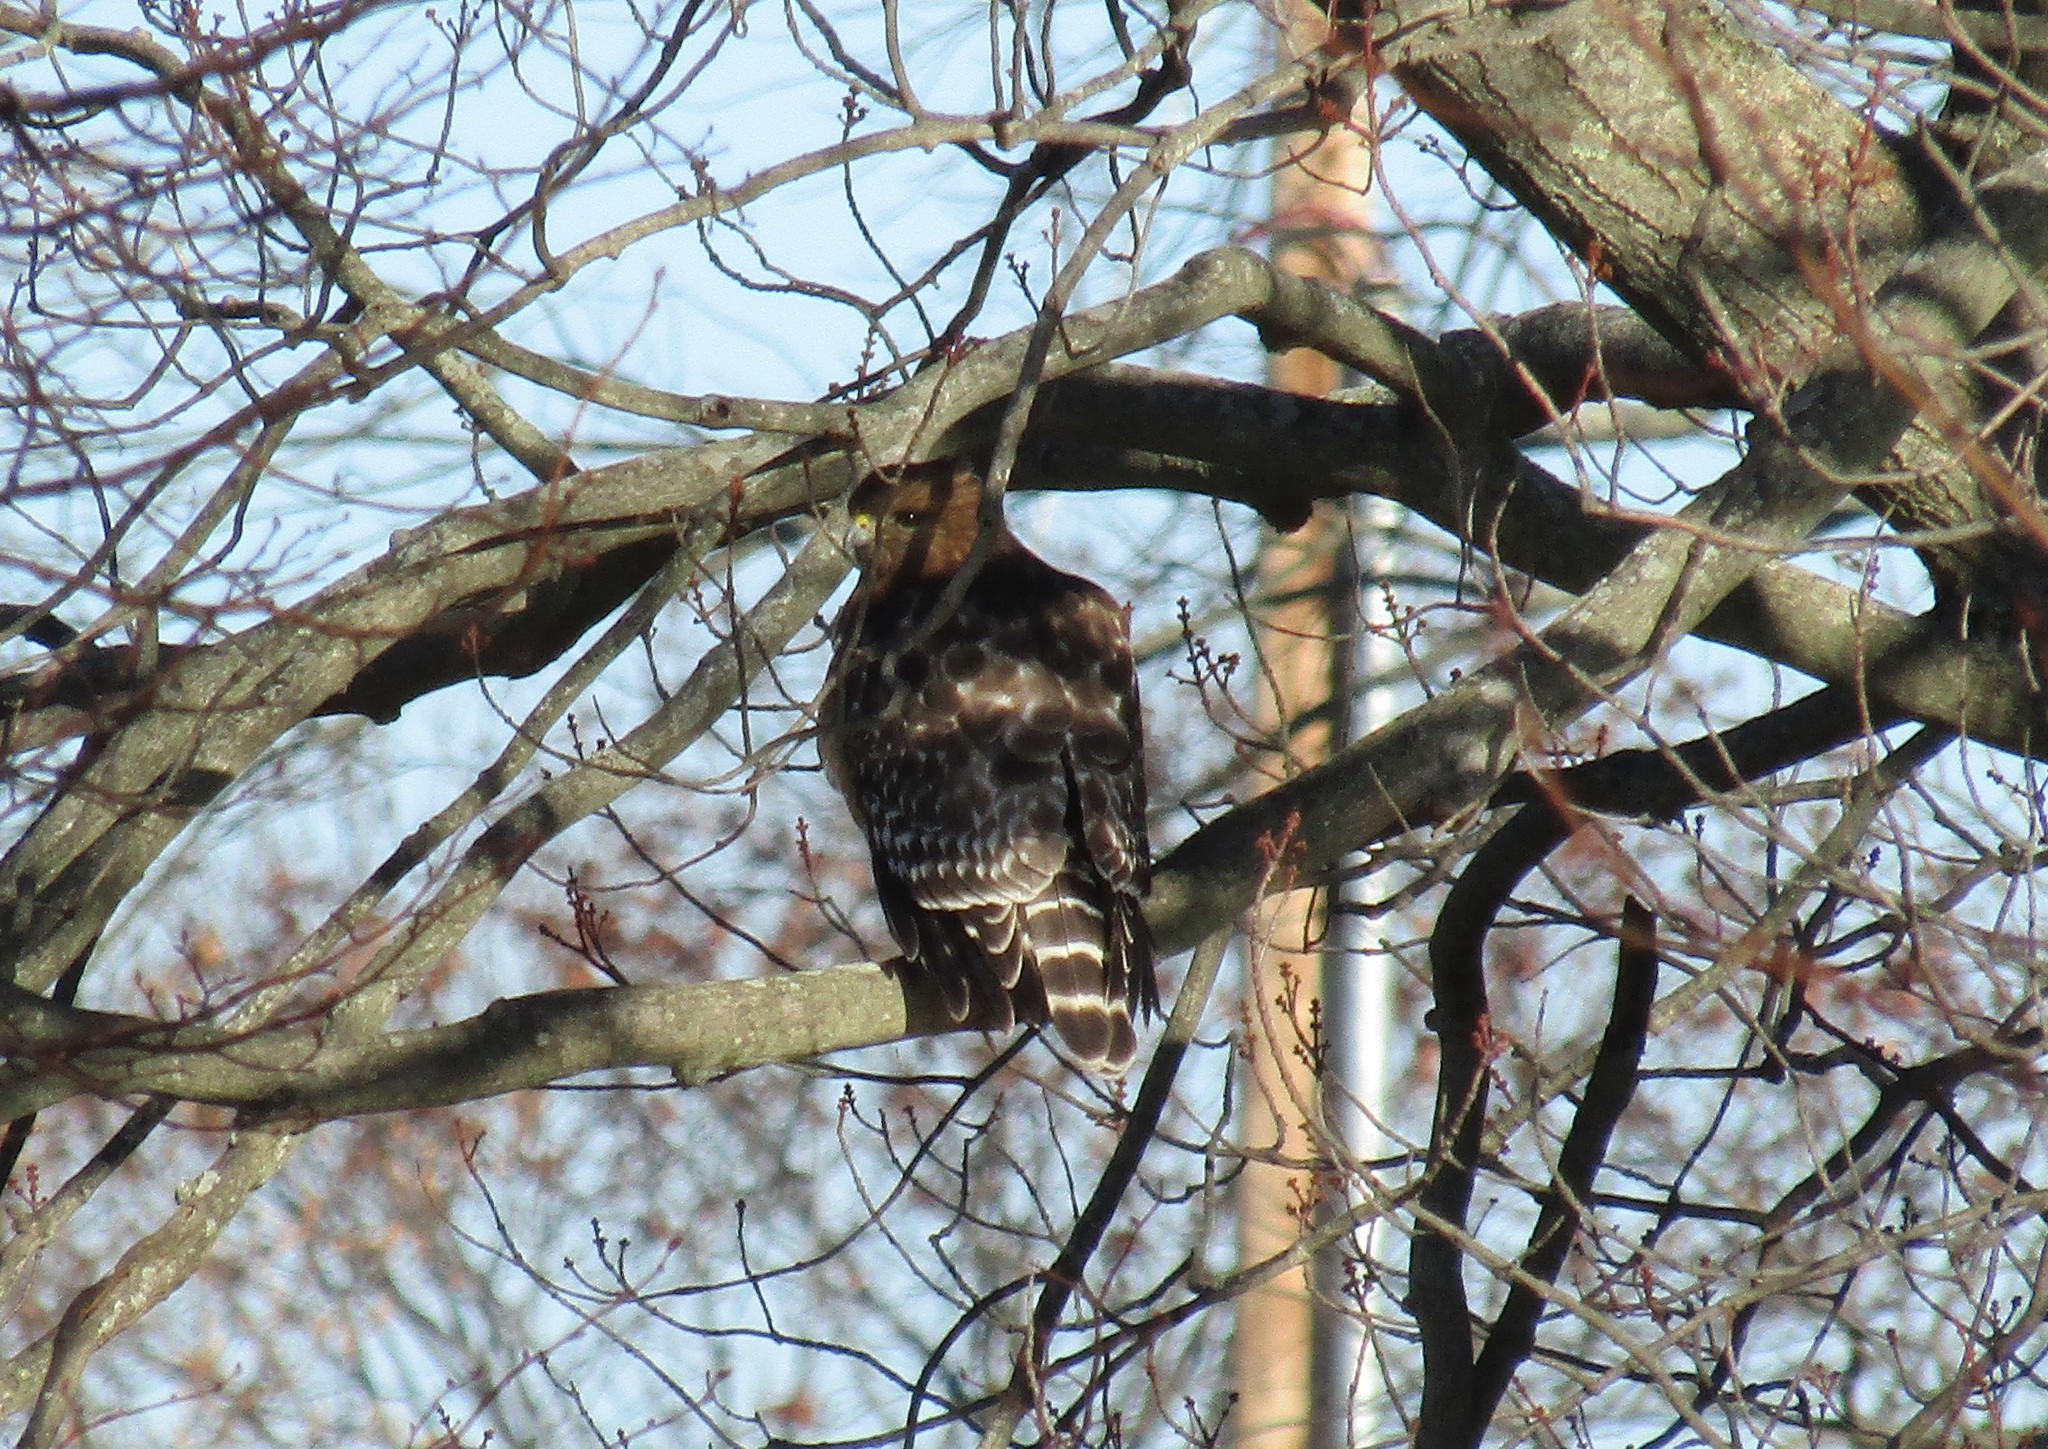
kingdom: Animalia
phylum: Chordata
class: Aves
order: Accipitriformes
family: Accipitridae
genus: Buteo
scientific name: Buteo lineatus
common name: Red-shouldered hawk
